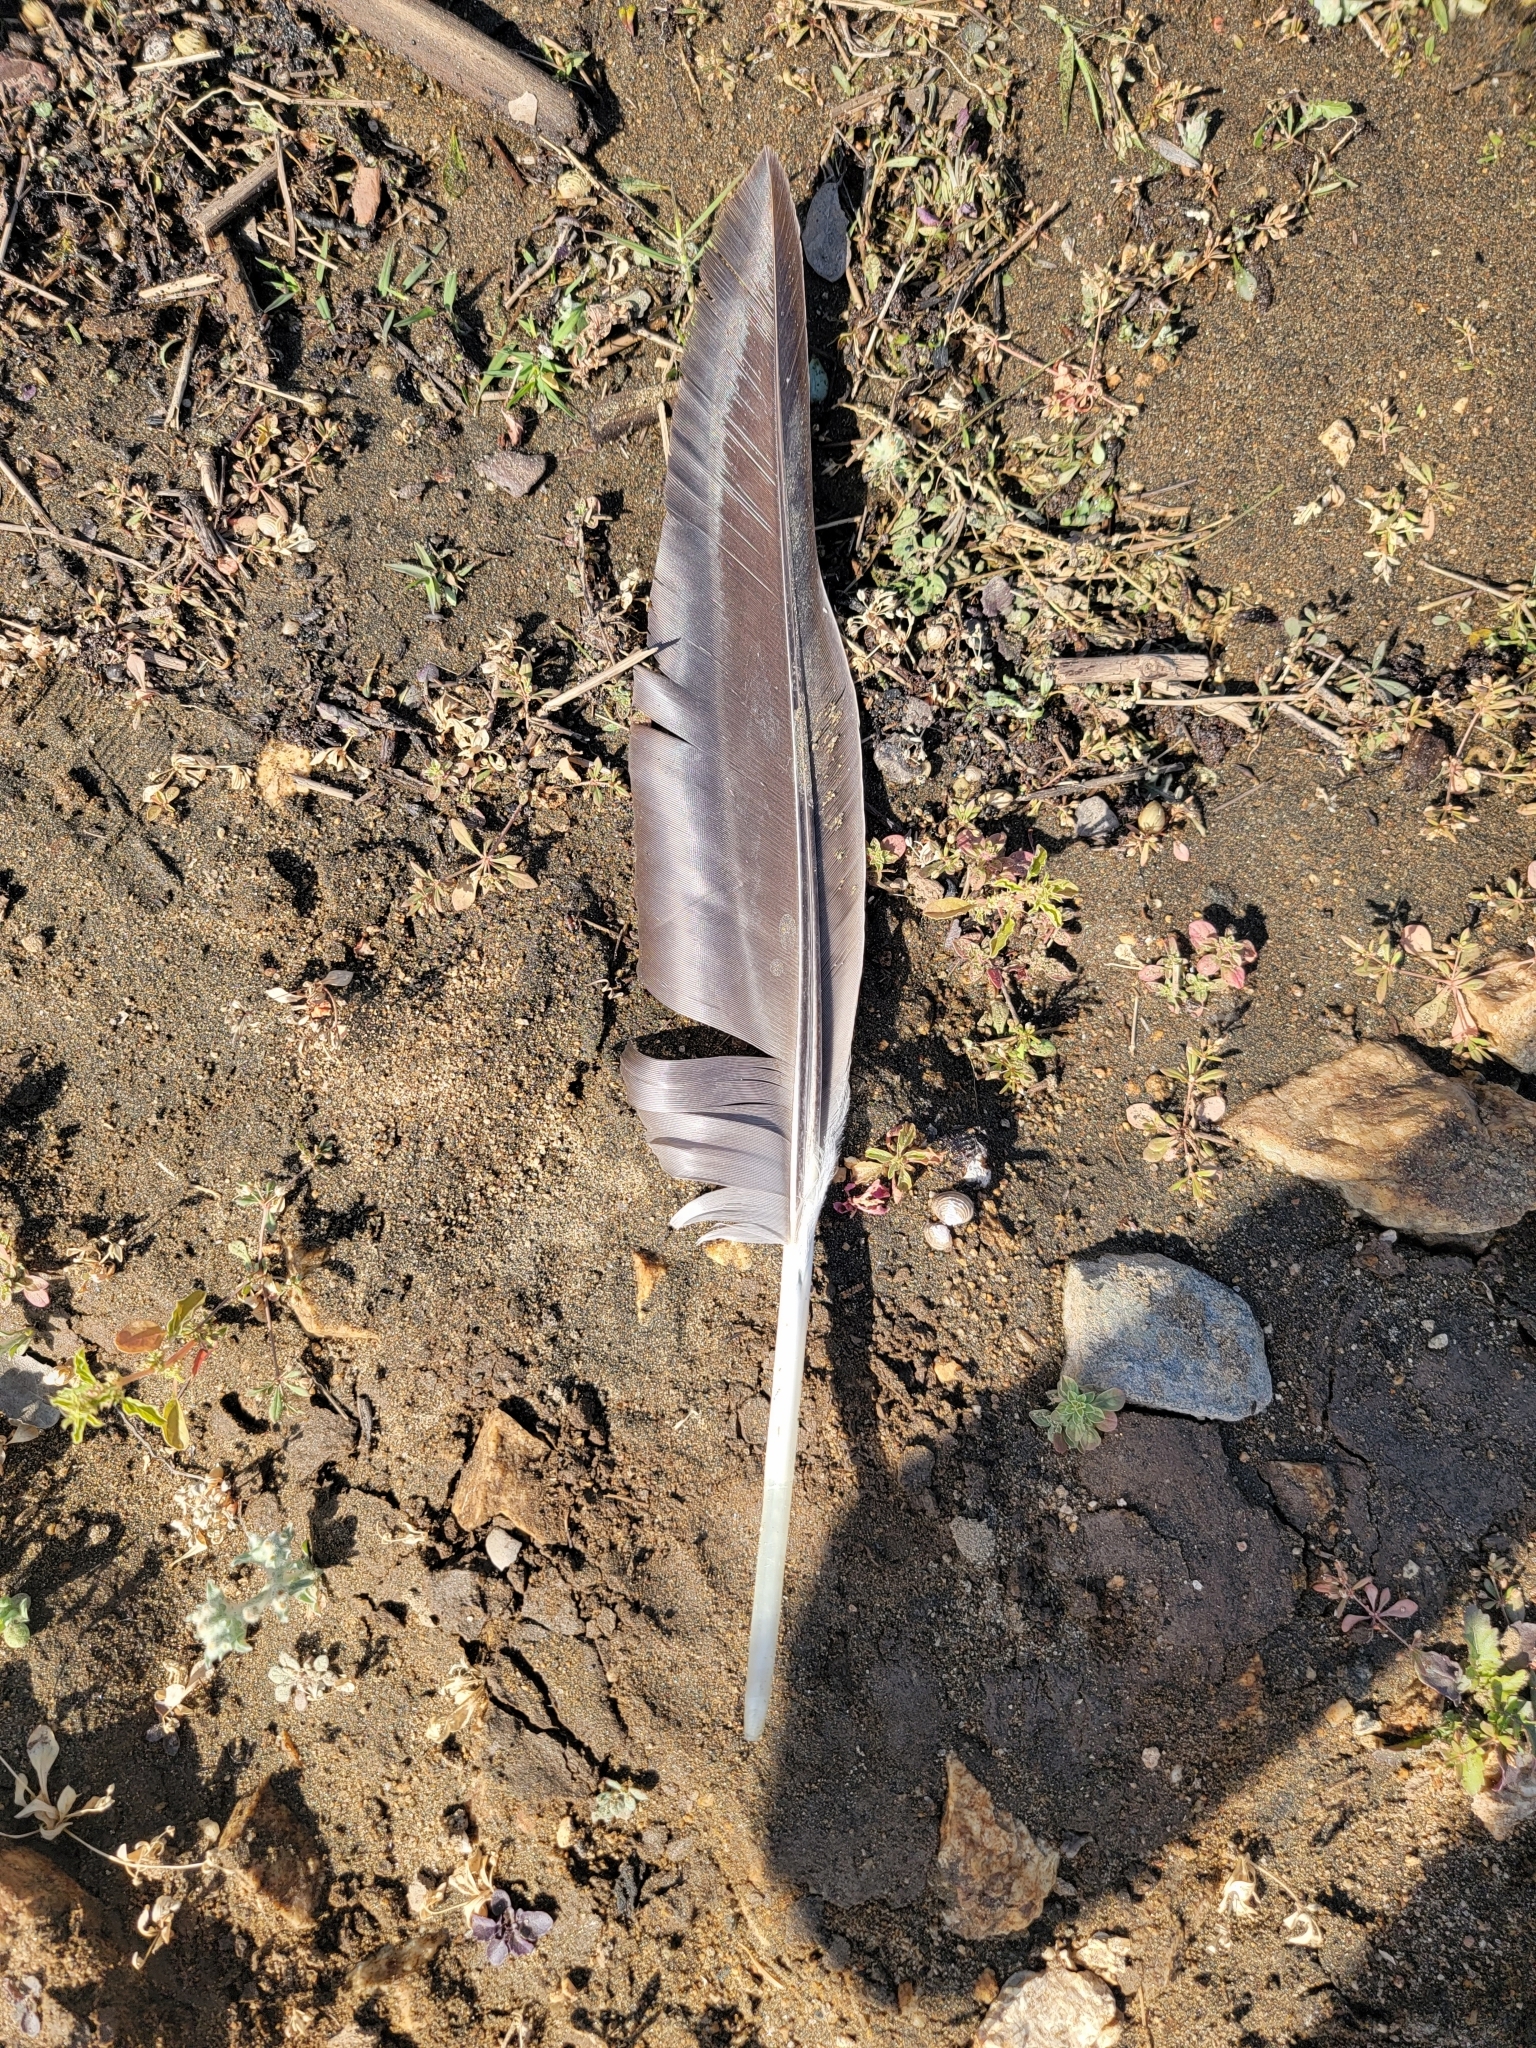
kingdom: Animalia
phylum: Chordata
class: Aves
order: Anseriformes
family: Anatidae
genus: Branta
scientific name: Branta canadensis
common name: Canada goose
